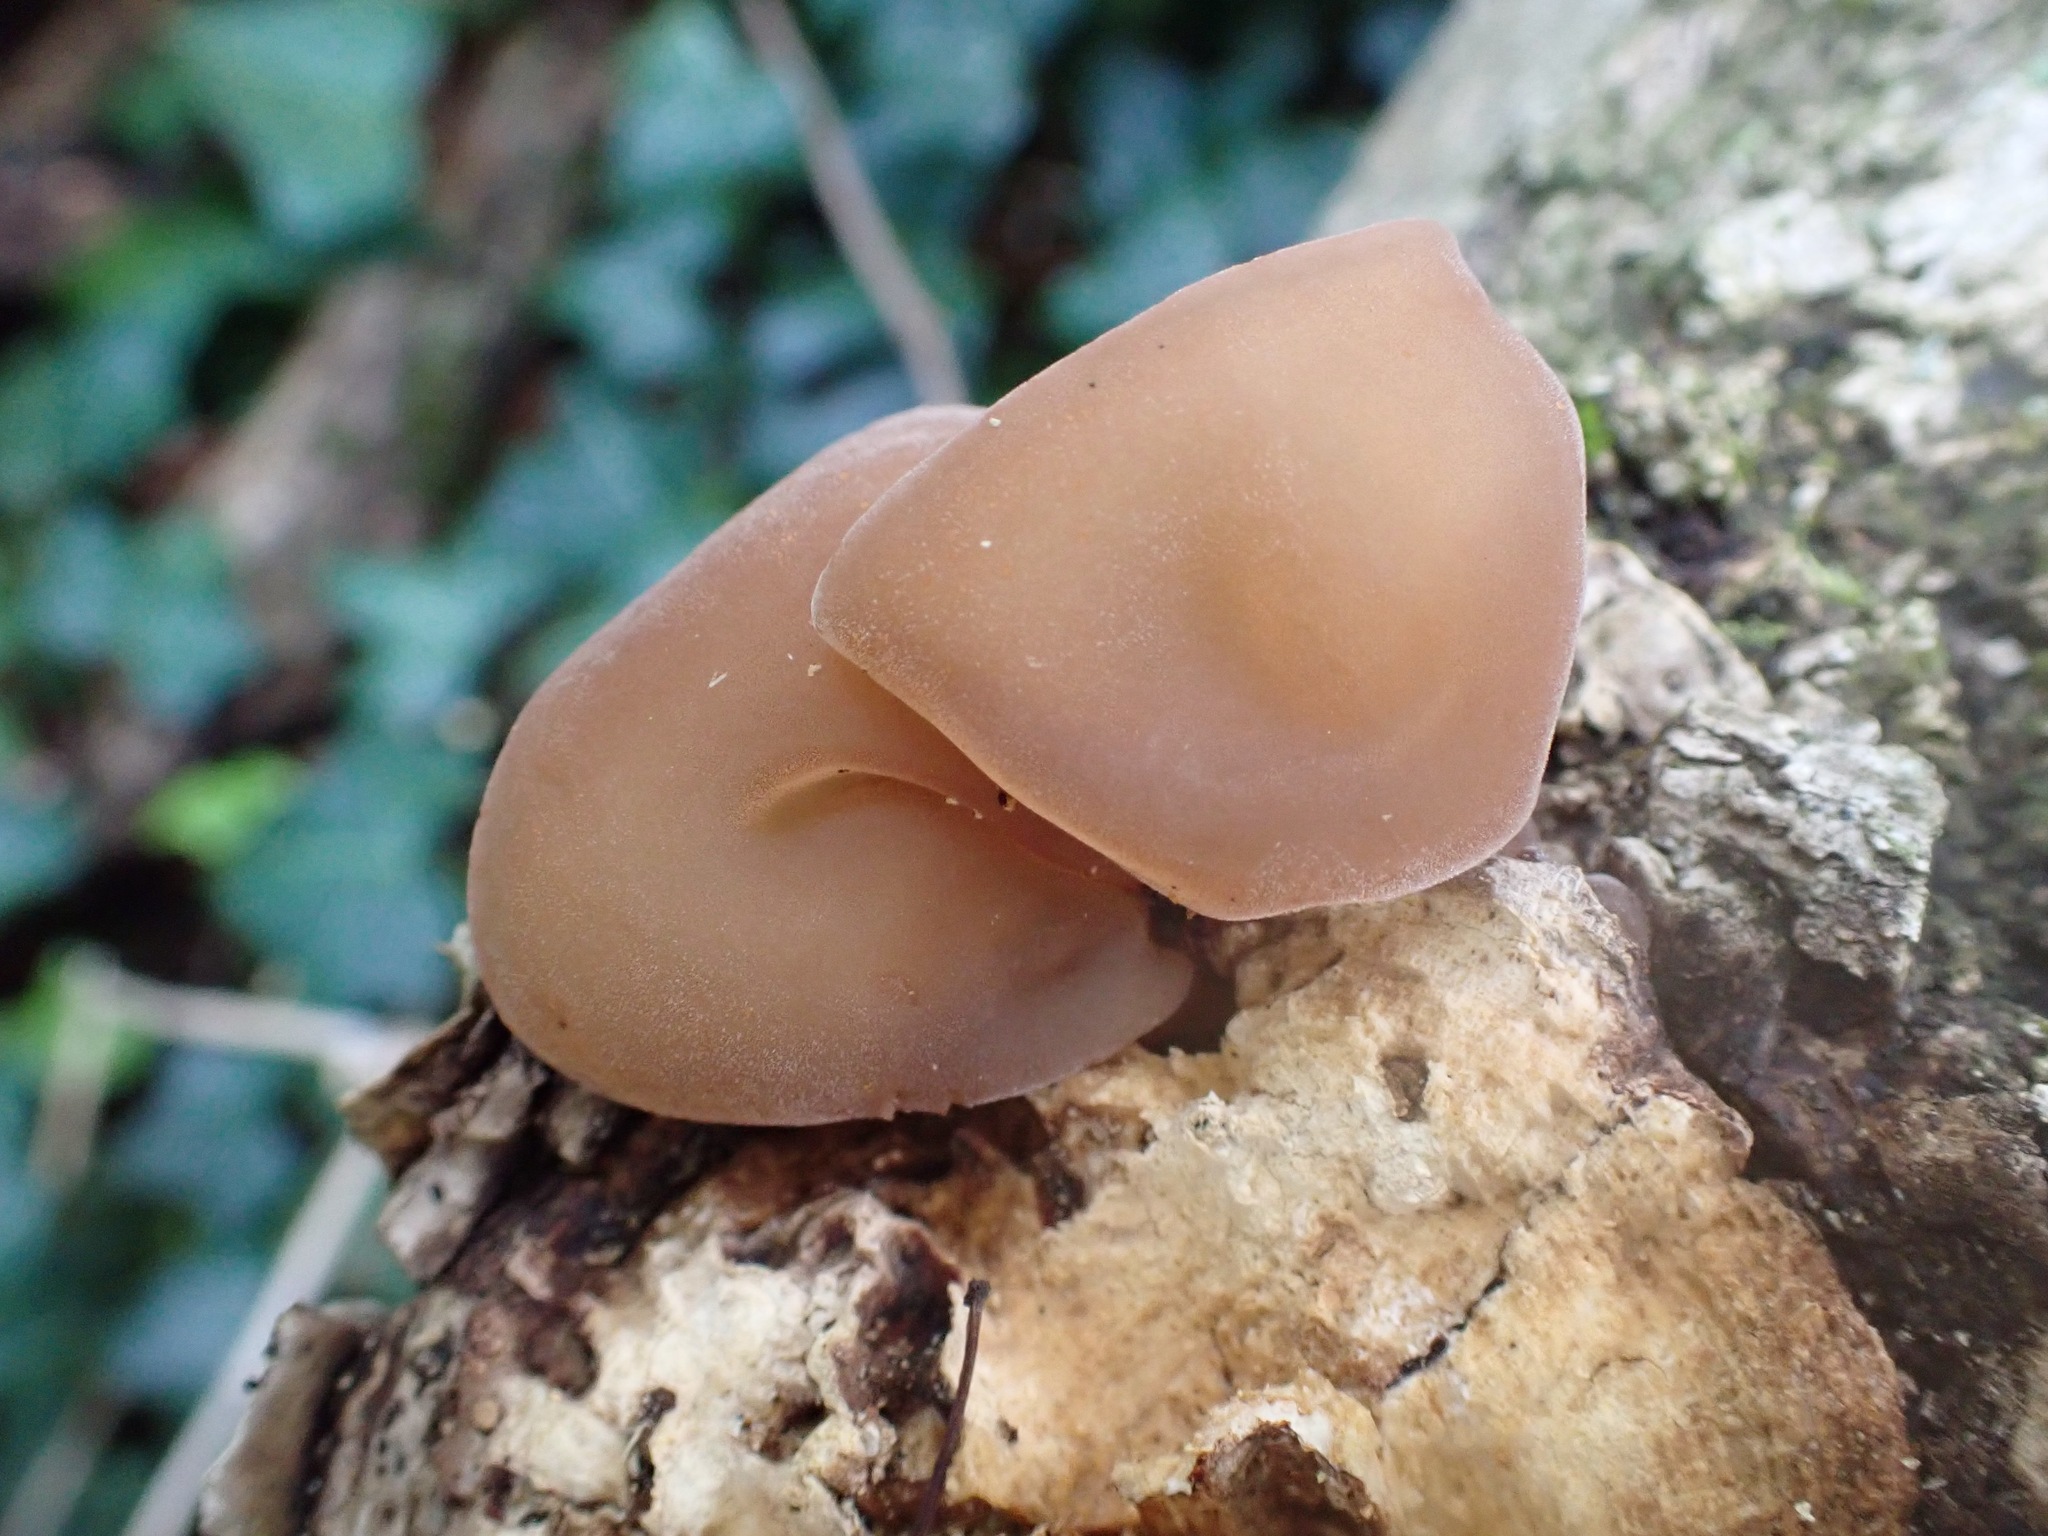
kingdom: Fungi
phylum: Basidiomycota
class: Agaricomycetes
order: Auriculariales
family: Auriculariaceae
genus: Auricularia
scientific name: Auricularia auricula-judae
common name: Jelly ear
